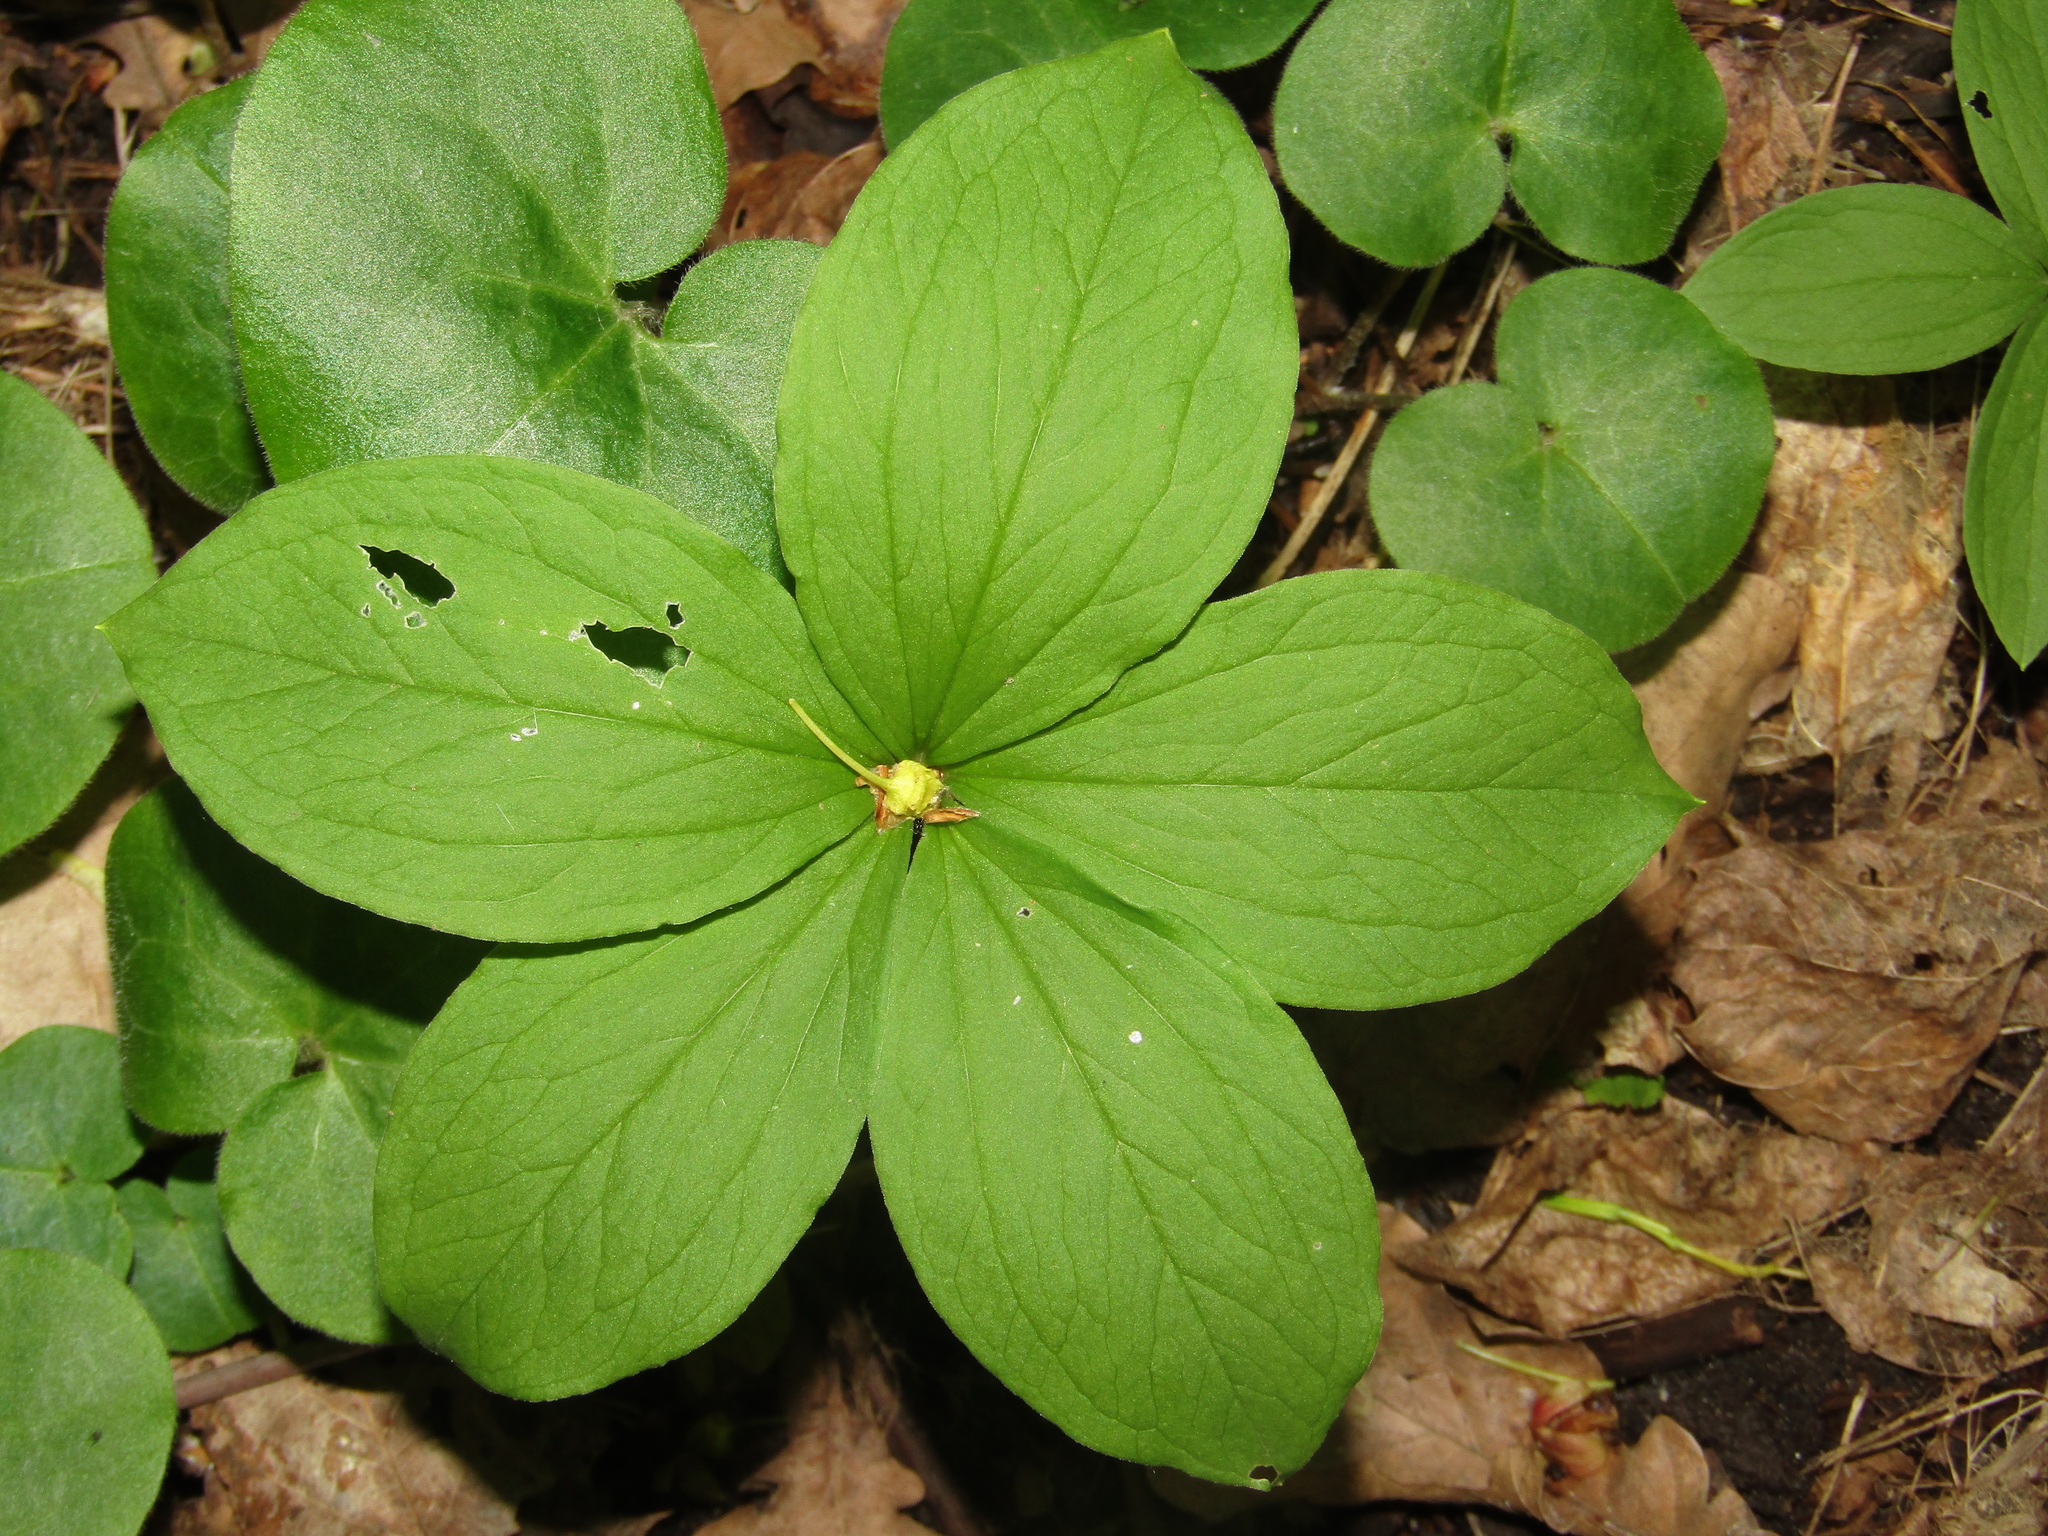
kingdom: Plantae
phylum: Tracheophyta
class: Liliopsida
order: Liliales
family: Melanthiaceae
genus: Paris
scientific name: Paris quadrifolia
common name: Herb-paris
